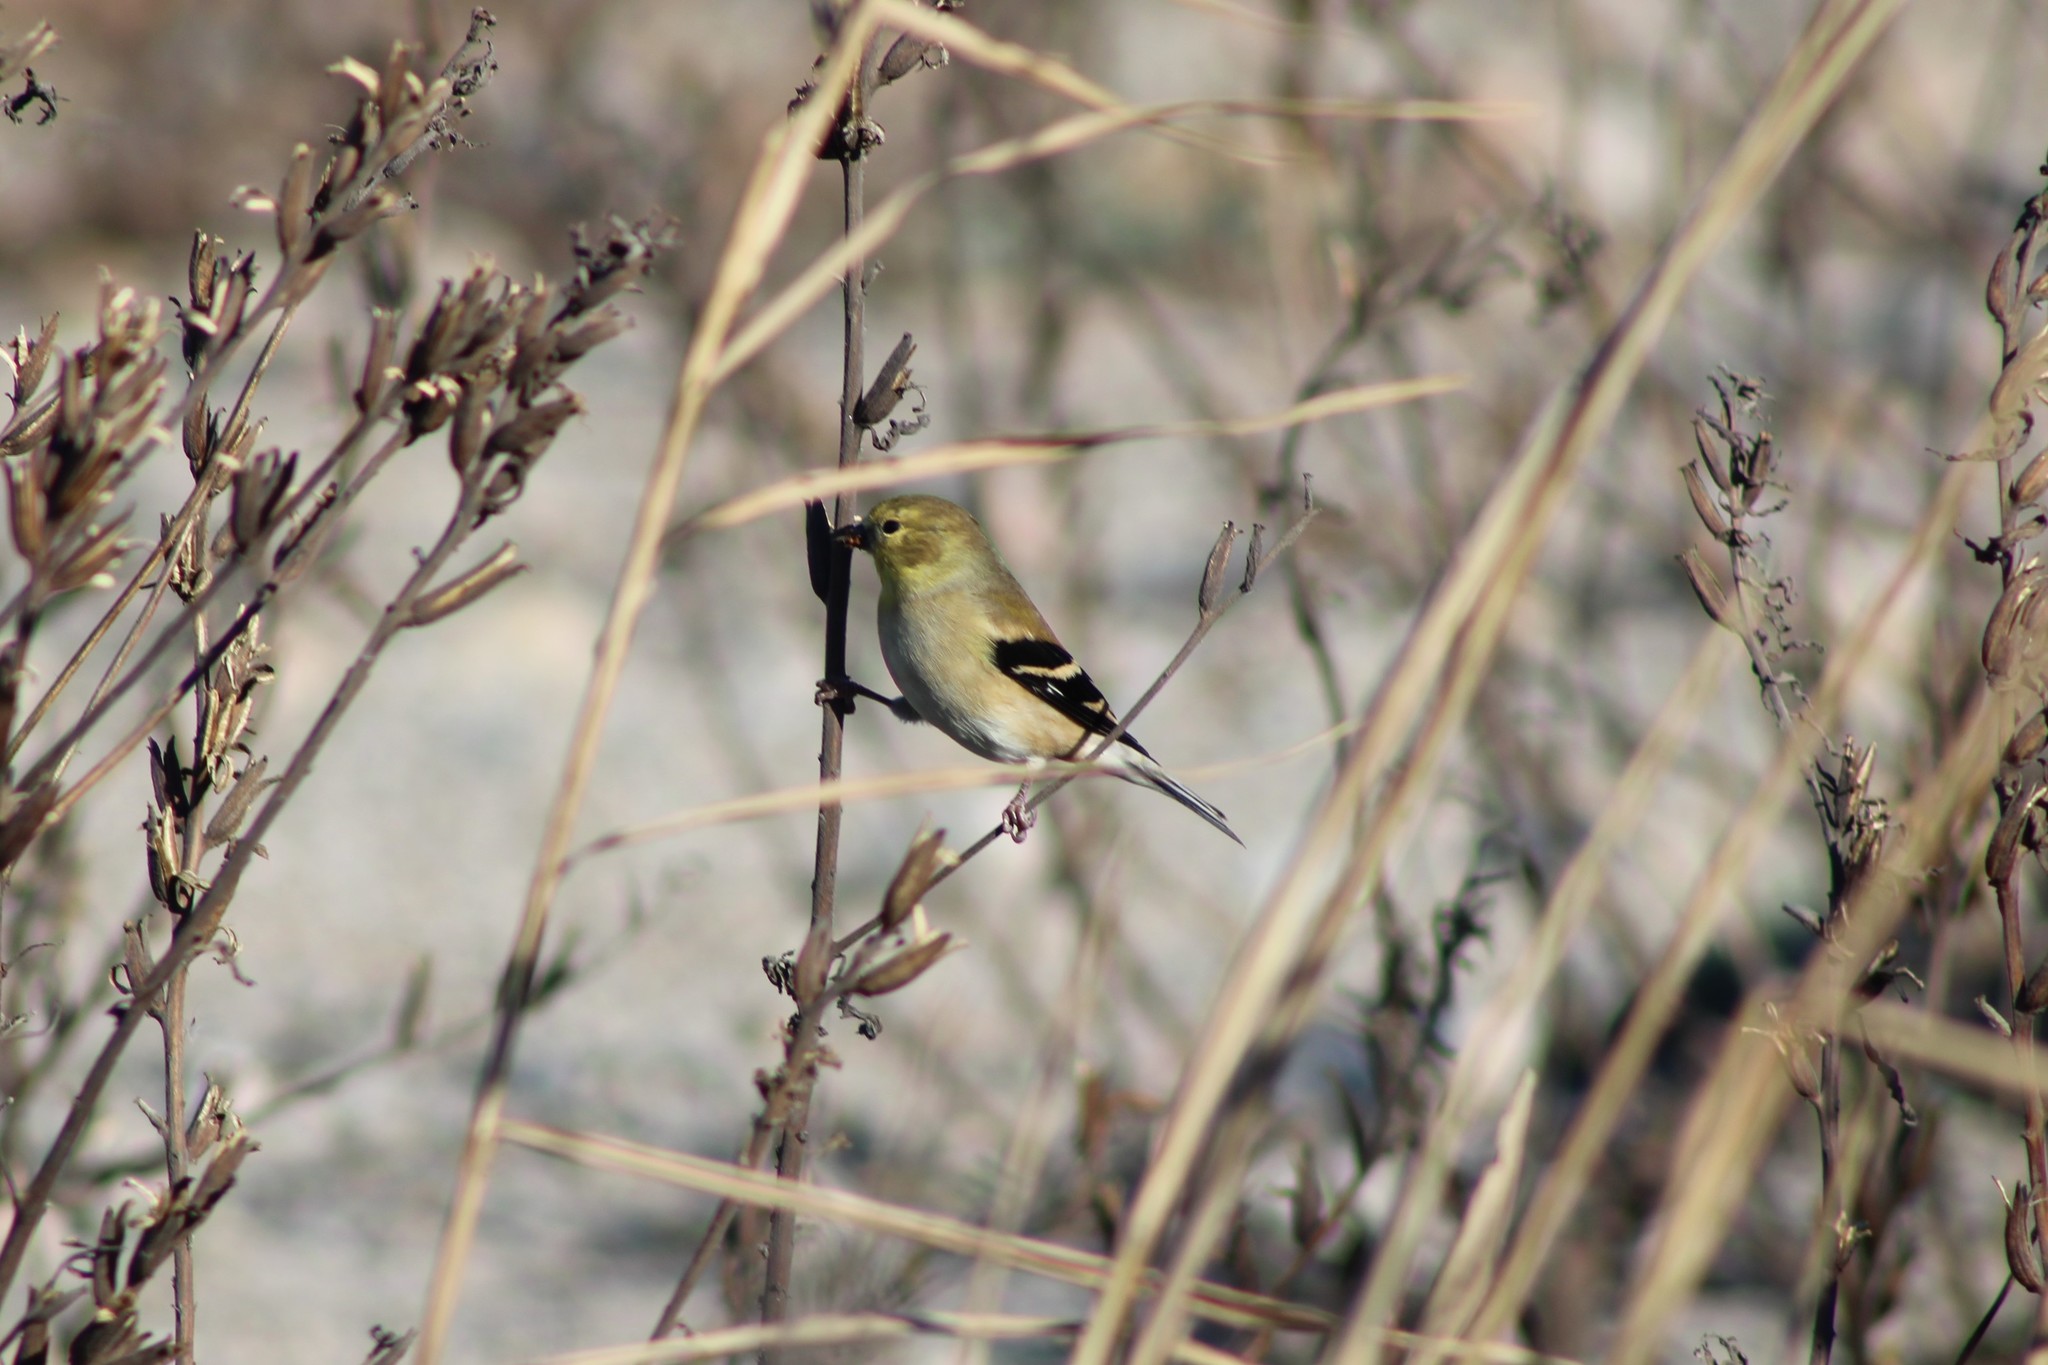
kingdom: Animalia
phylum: Chordata
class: Aves
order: Passeriformes
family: Fringillidae
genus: Spinus
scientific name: Spinus tristis
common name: American goldfinch
